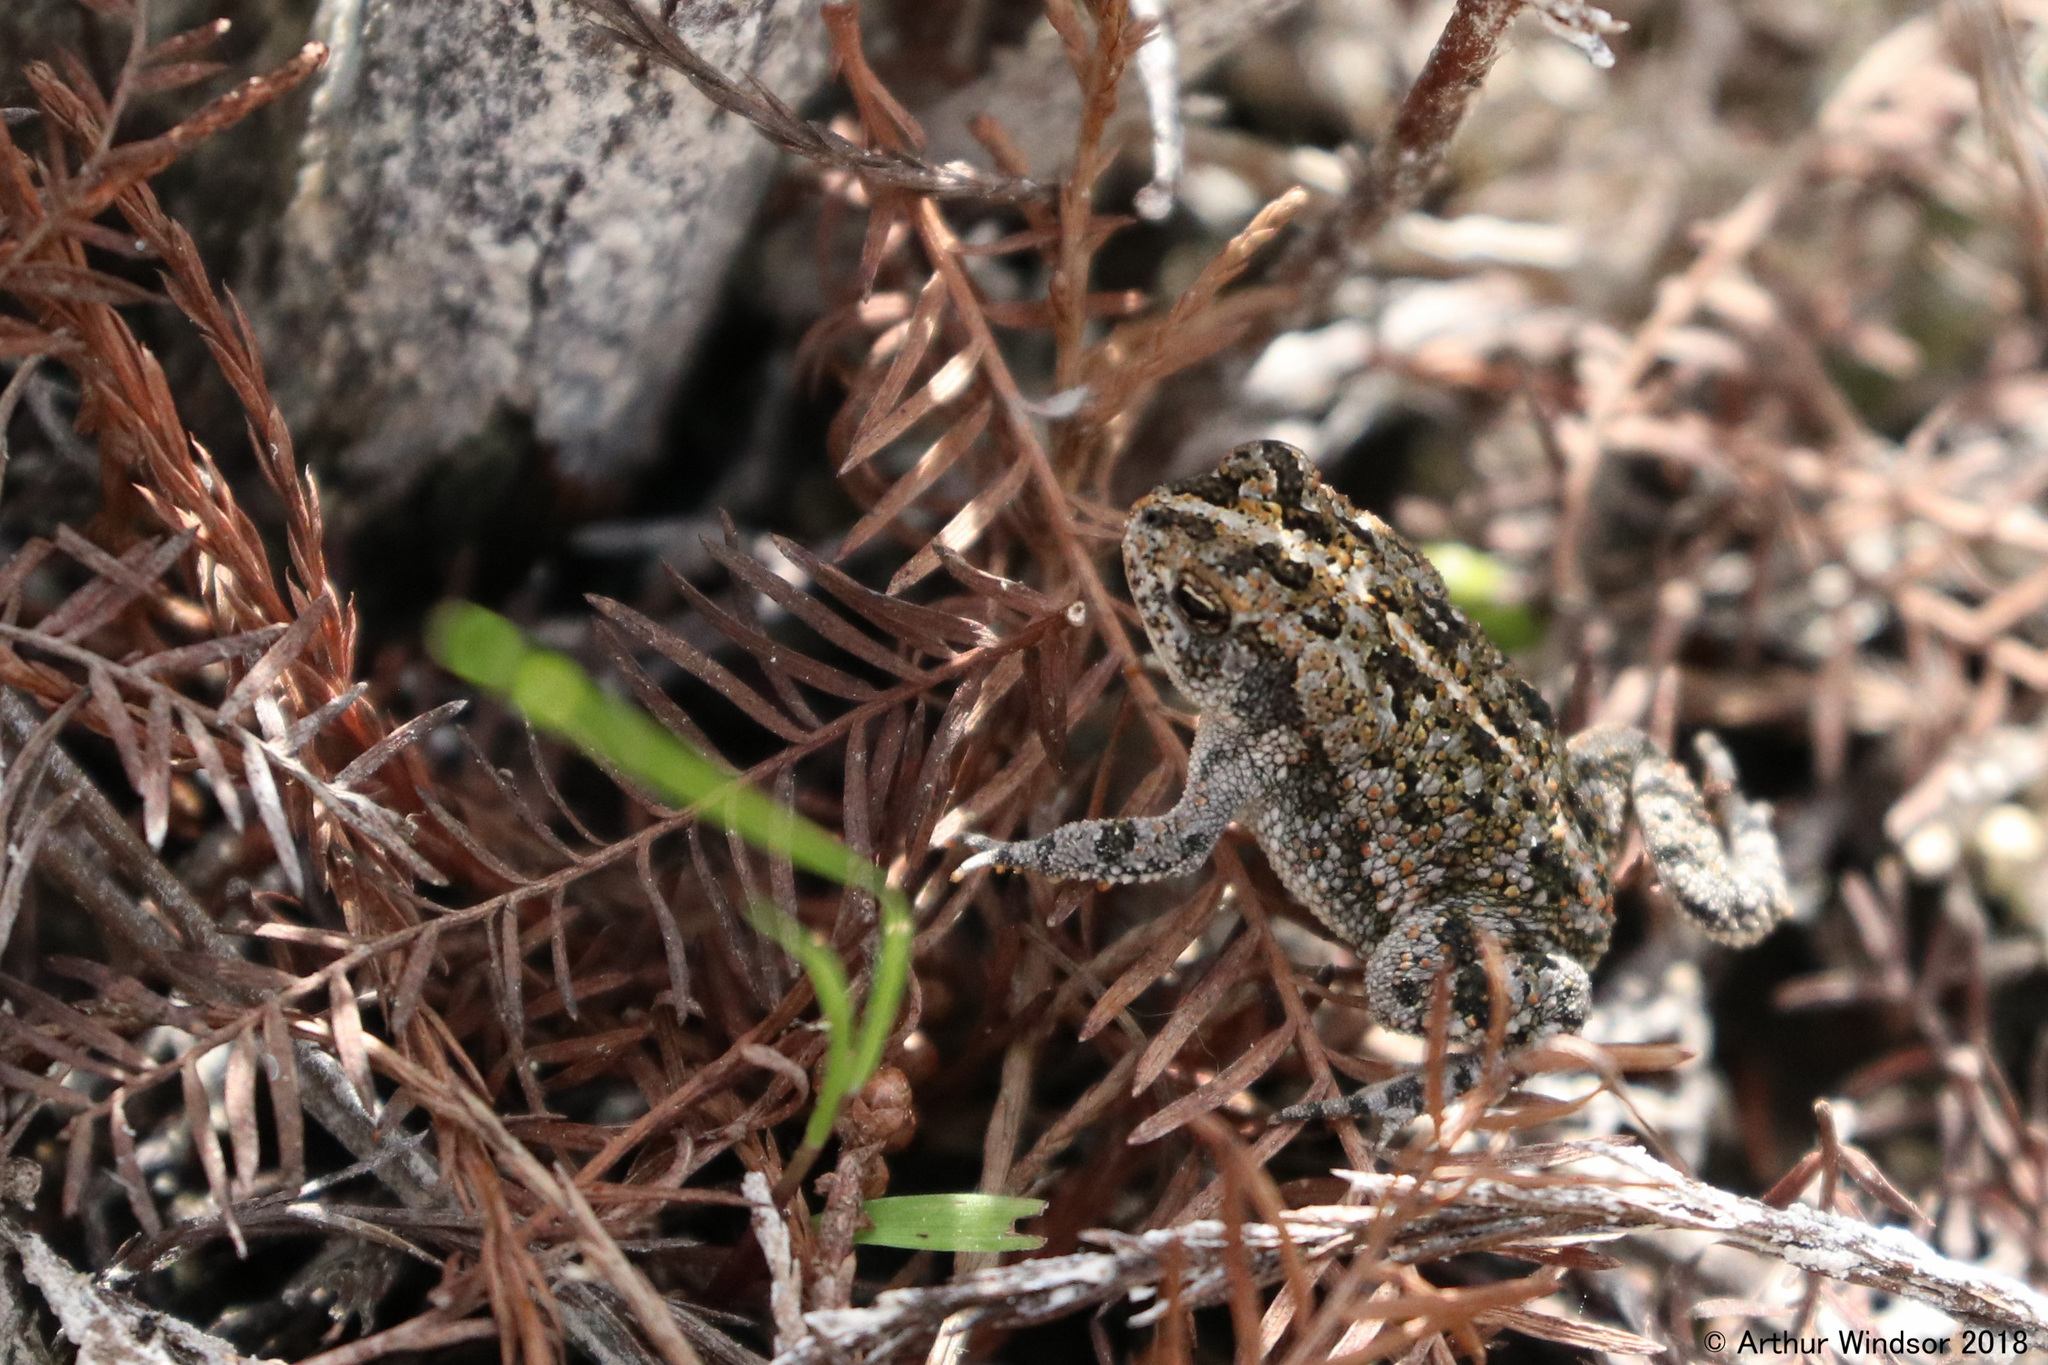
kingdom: Animalia
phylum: Chordata
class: Amphibia
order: Anura
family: Bufonidae
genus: Anaxyrus
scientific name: Anaxyrus quercicus
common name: Oak toad
